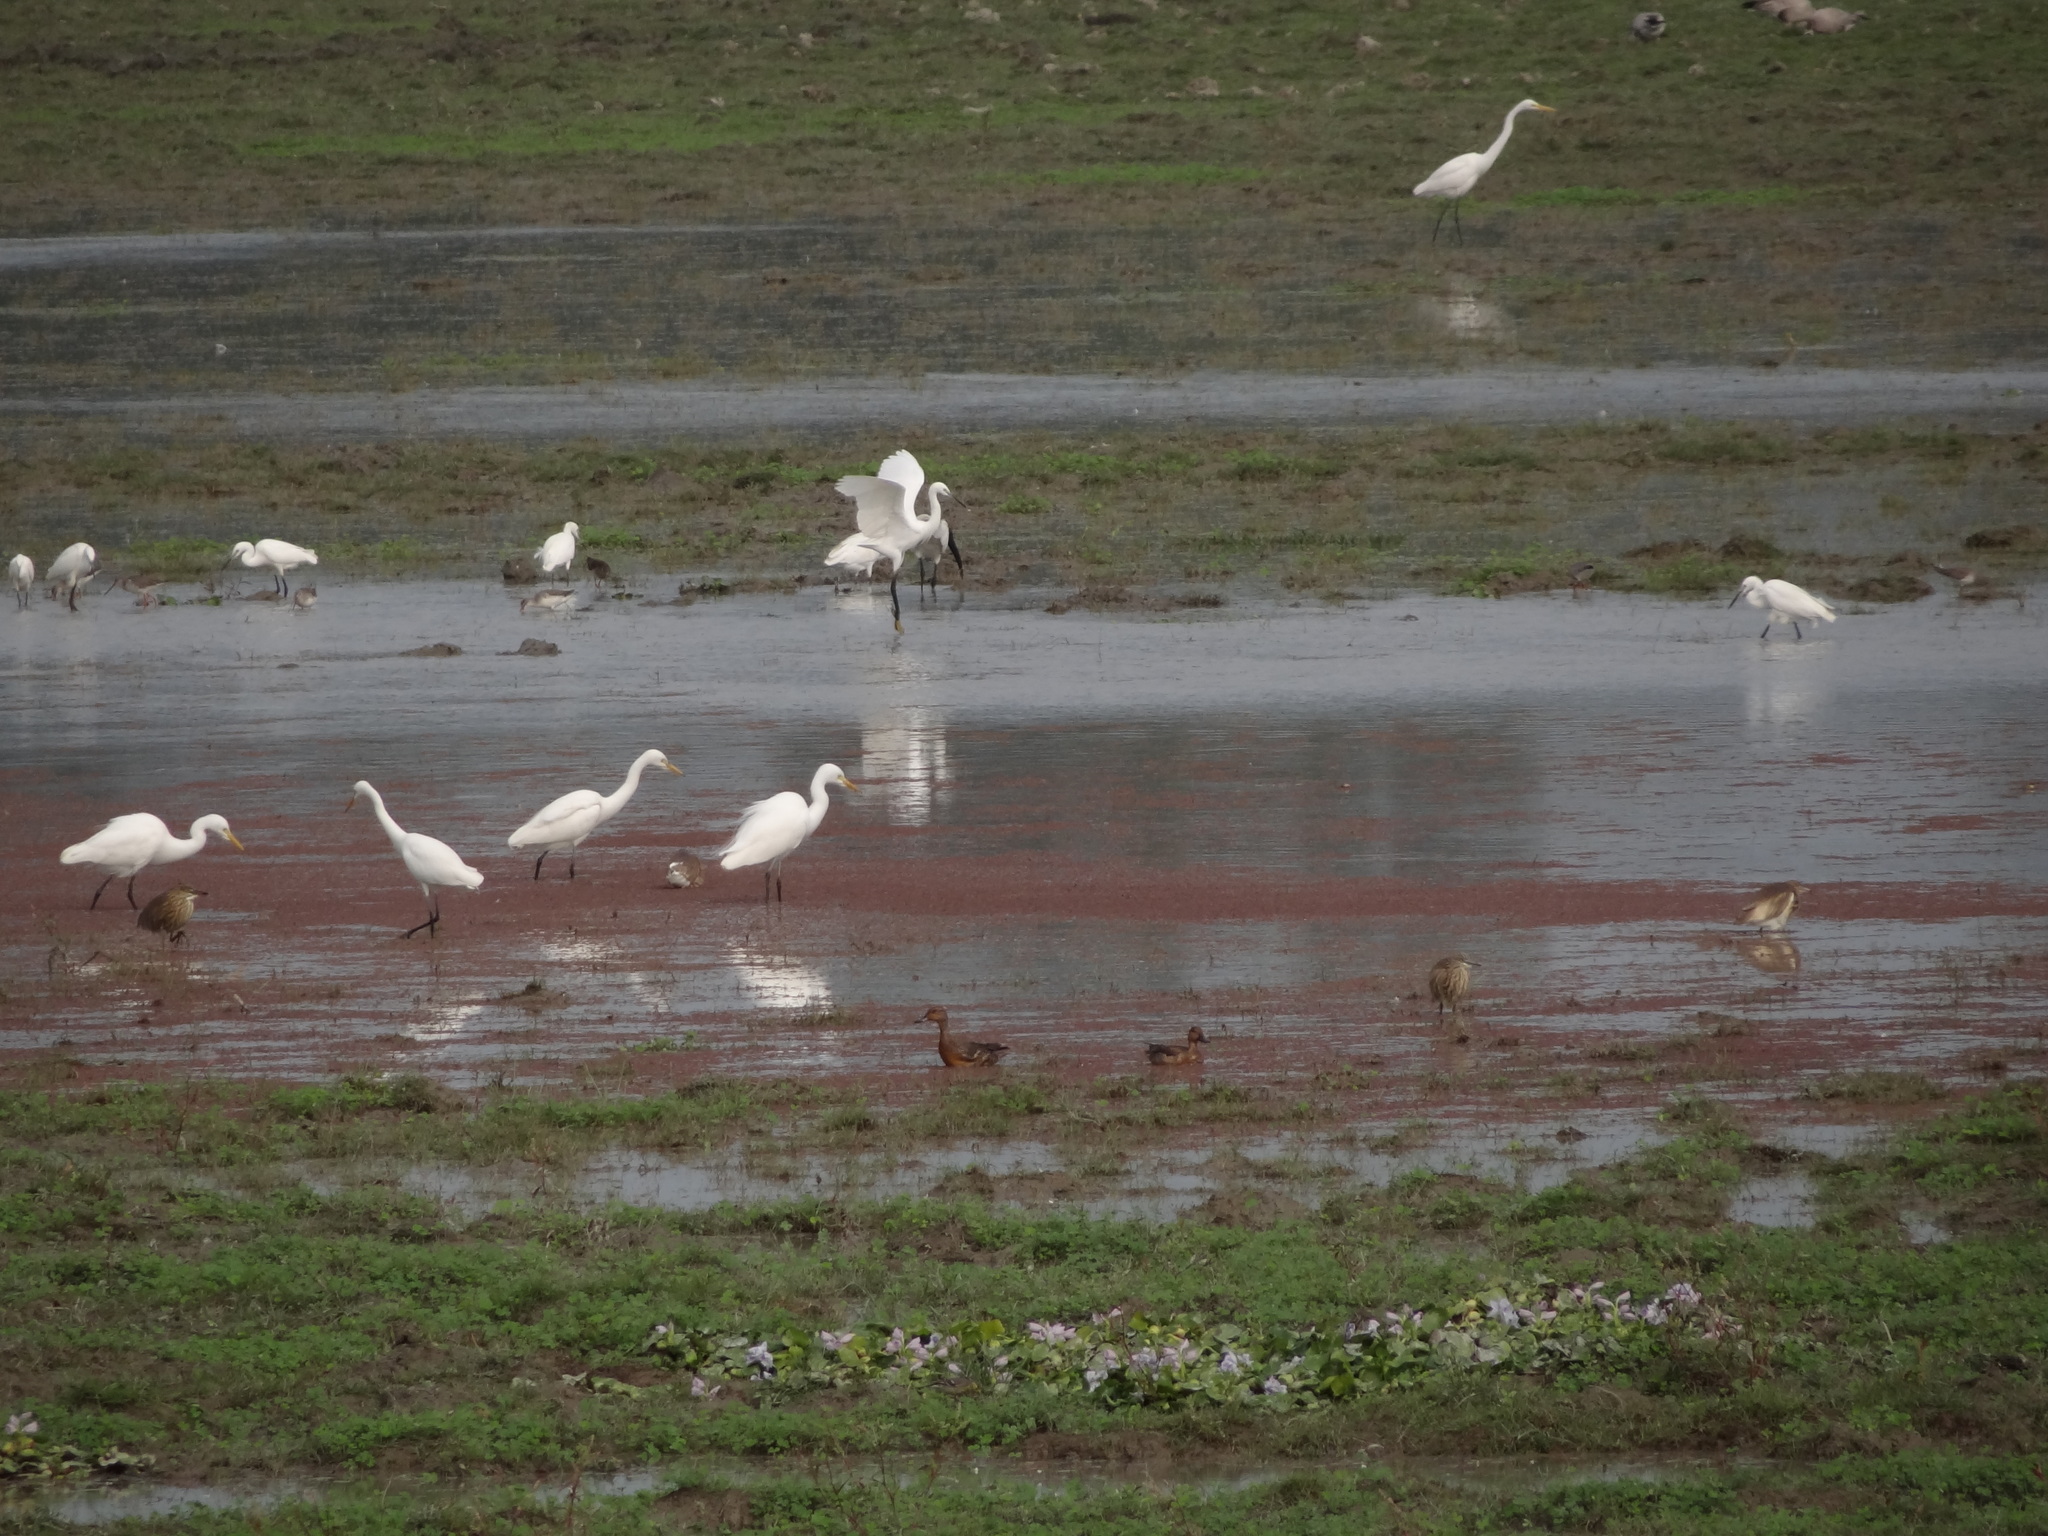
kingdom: Animalia
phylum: Chordata
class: Aves
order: Anseriformes
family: Anatidae
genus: Anas
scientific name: Anas crecca
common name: Eurasian teal
